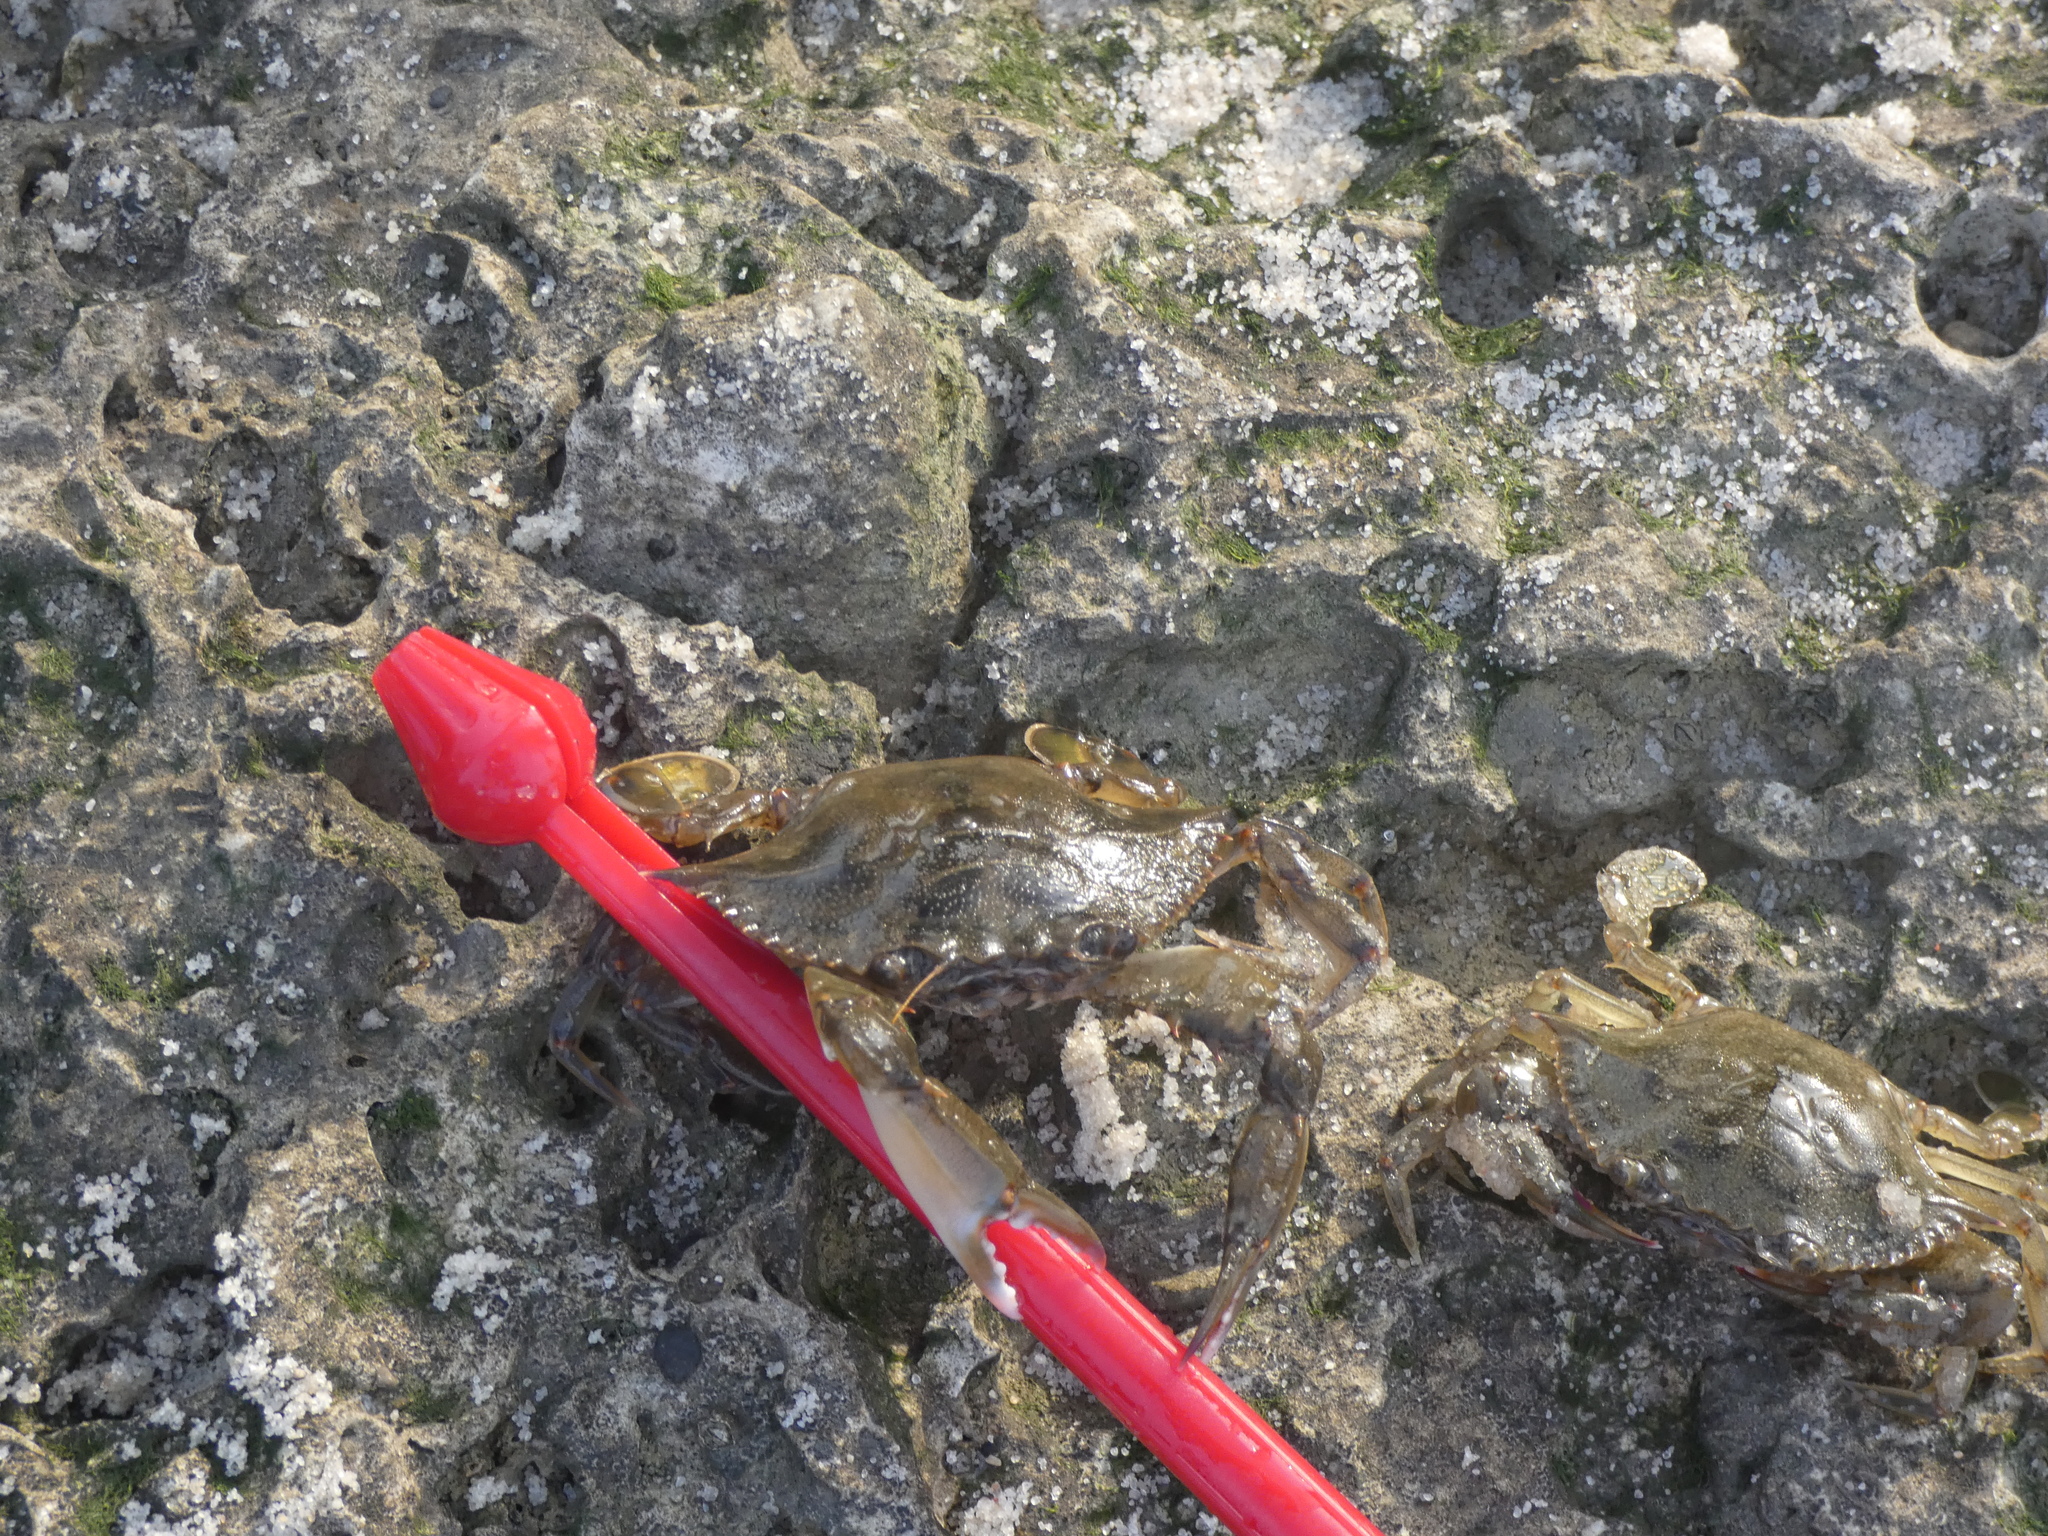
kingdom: Animalia
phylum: Arthropoda
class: Malacostraca
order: Decapoda
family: Portunidae
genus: Callinectes
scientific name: Callinectes sapidus
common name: Blue crab
